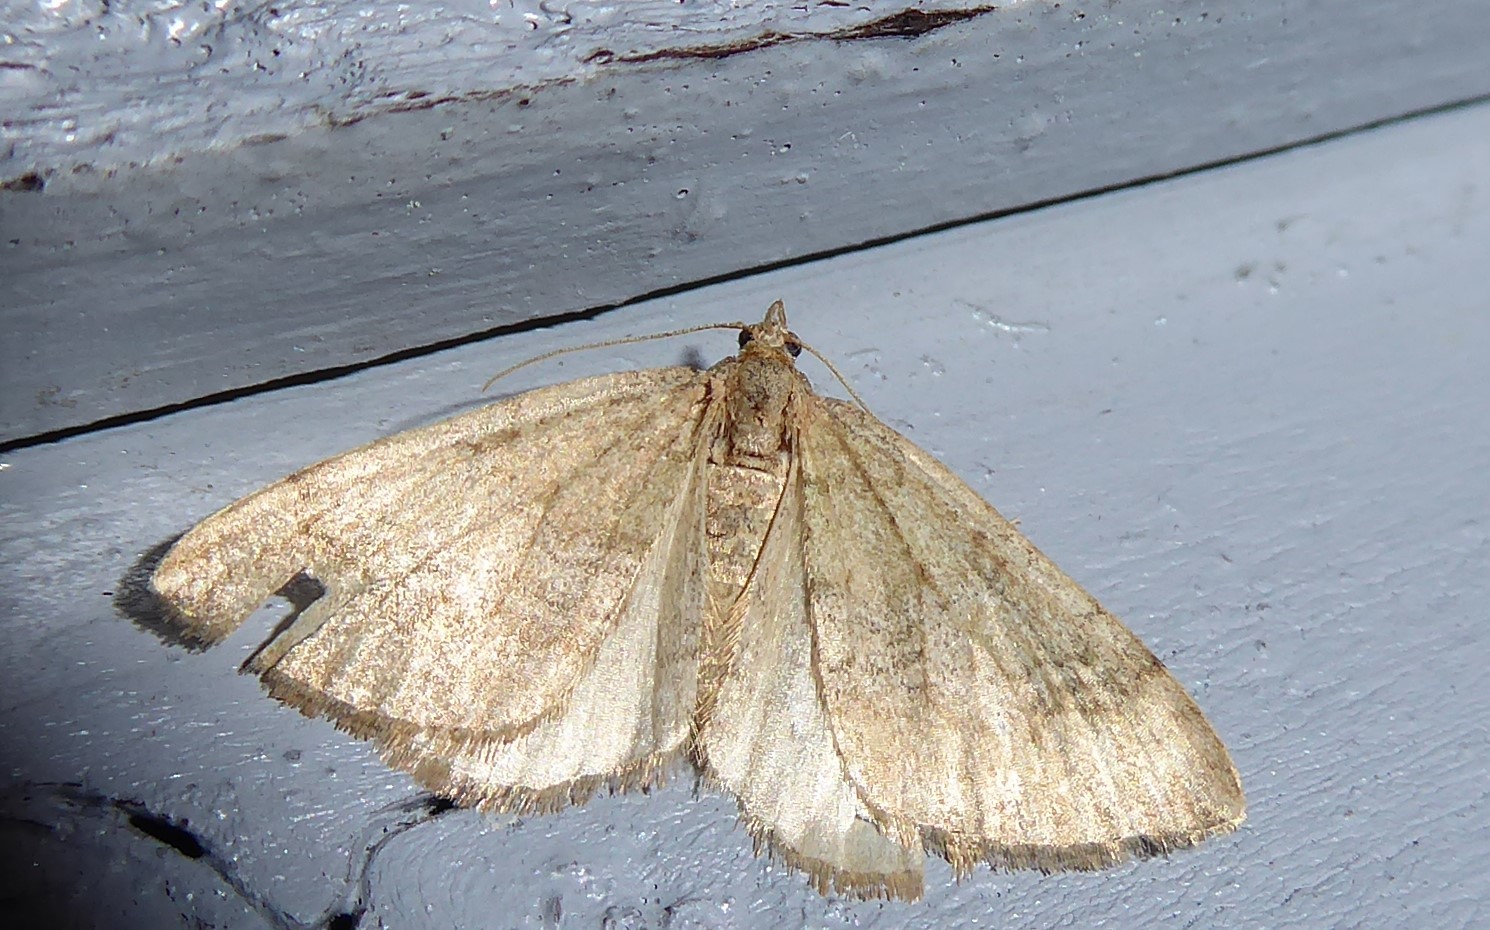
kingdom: Animalia
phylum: Arthropoda
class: Insecta
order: Lepidoptera
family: Geometridae
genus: Epyaxa
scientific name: Epyaxa rosearia
